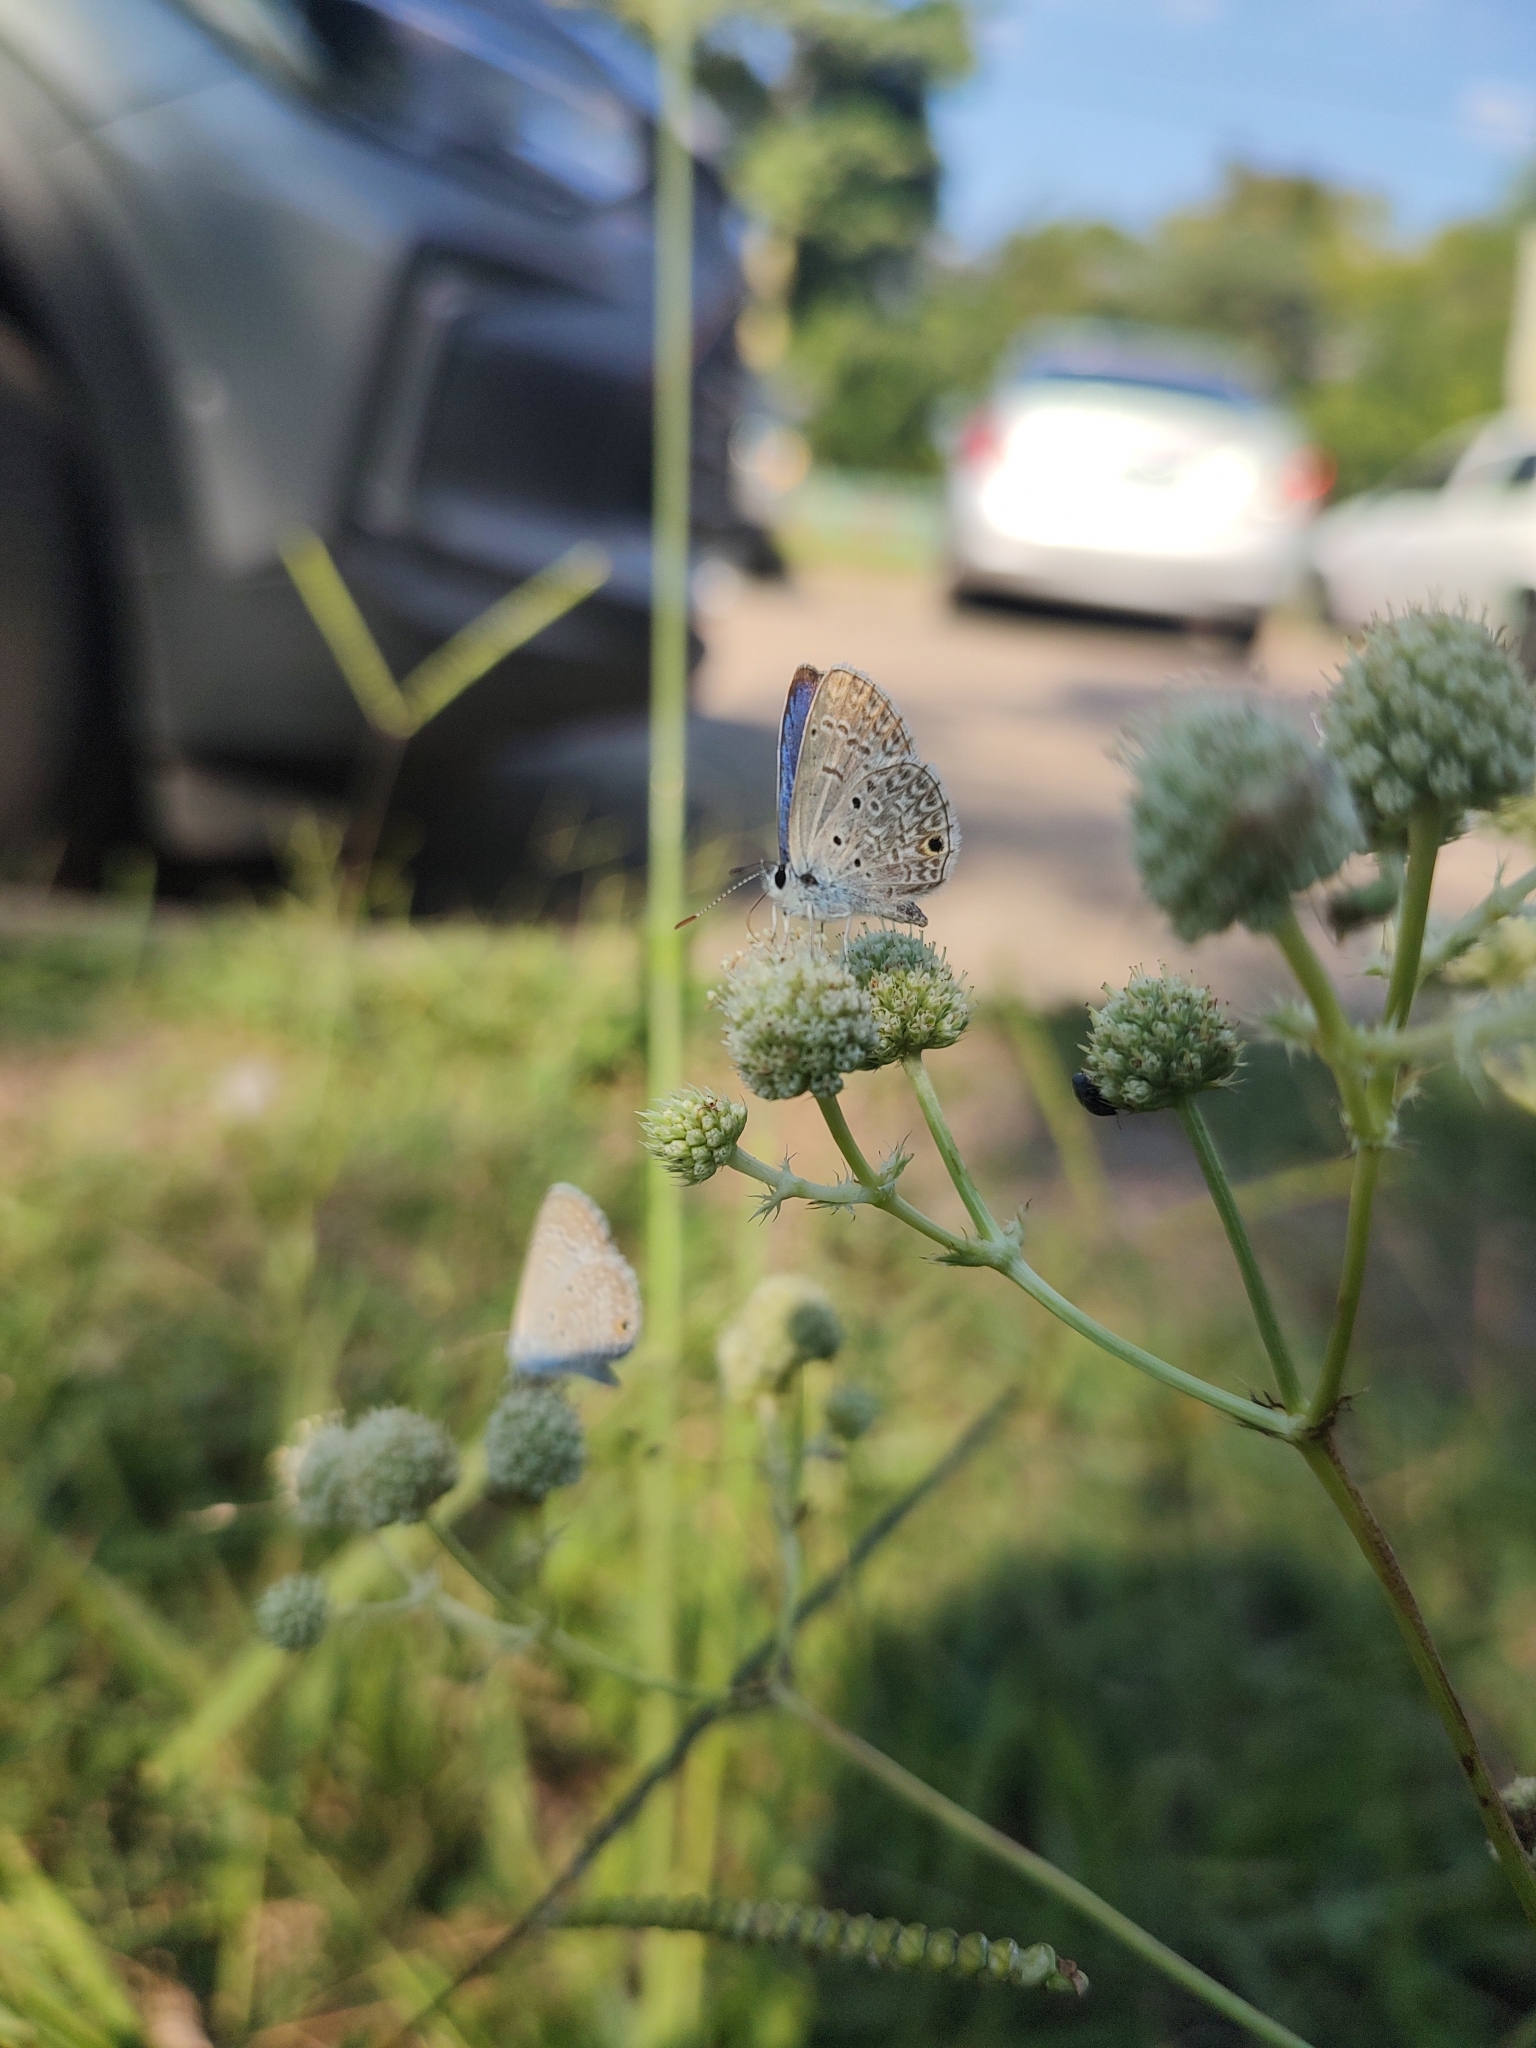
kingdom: Animalia
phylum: Arthropoda
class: Insecta
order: Lepidoptera
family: Lycaenidae
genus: Hemiargus
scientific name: Hemiargus hanno
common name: Common blue
